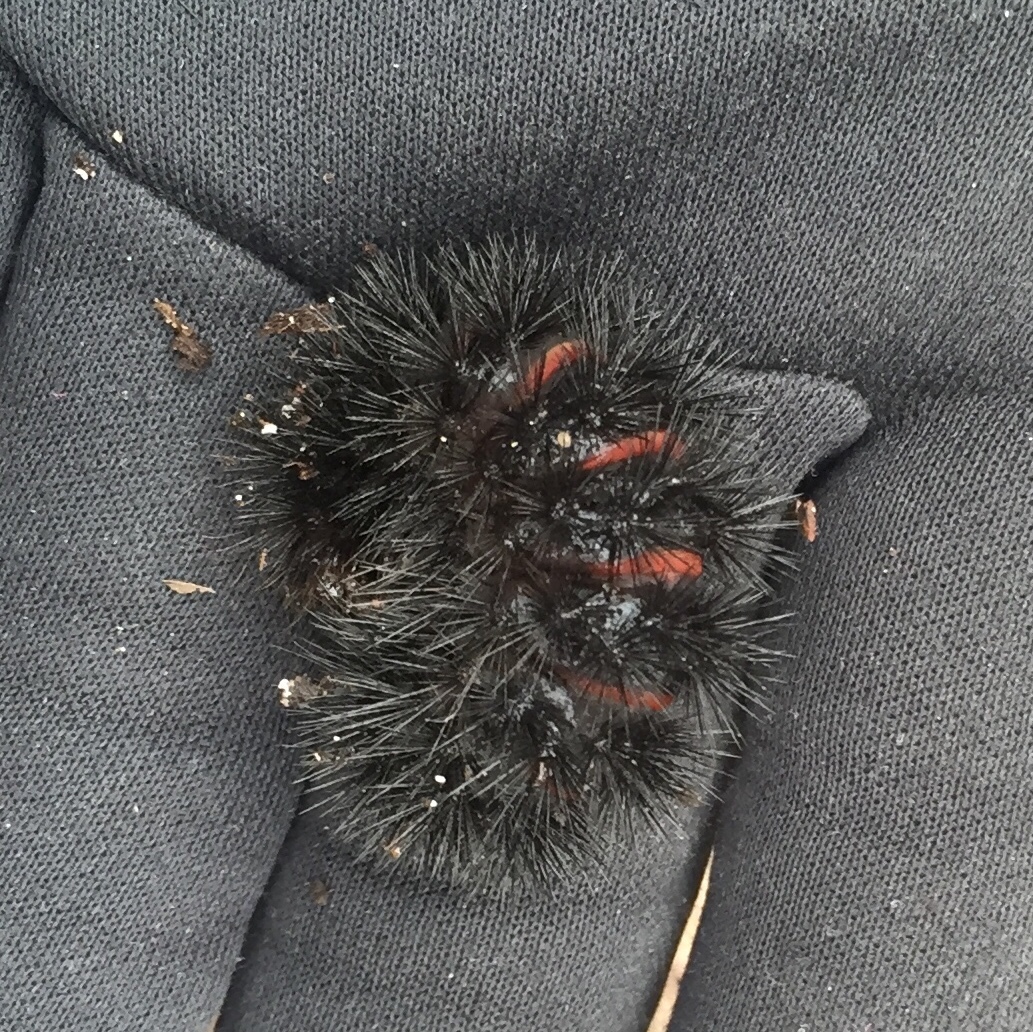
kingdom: Animalia
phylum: Arthropoda
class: Insecta
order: Lepidoptera
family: Erebidae
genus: Hypercompe
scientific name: Hypercompe scribonia
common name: Giant leopard moth
